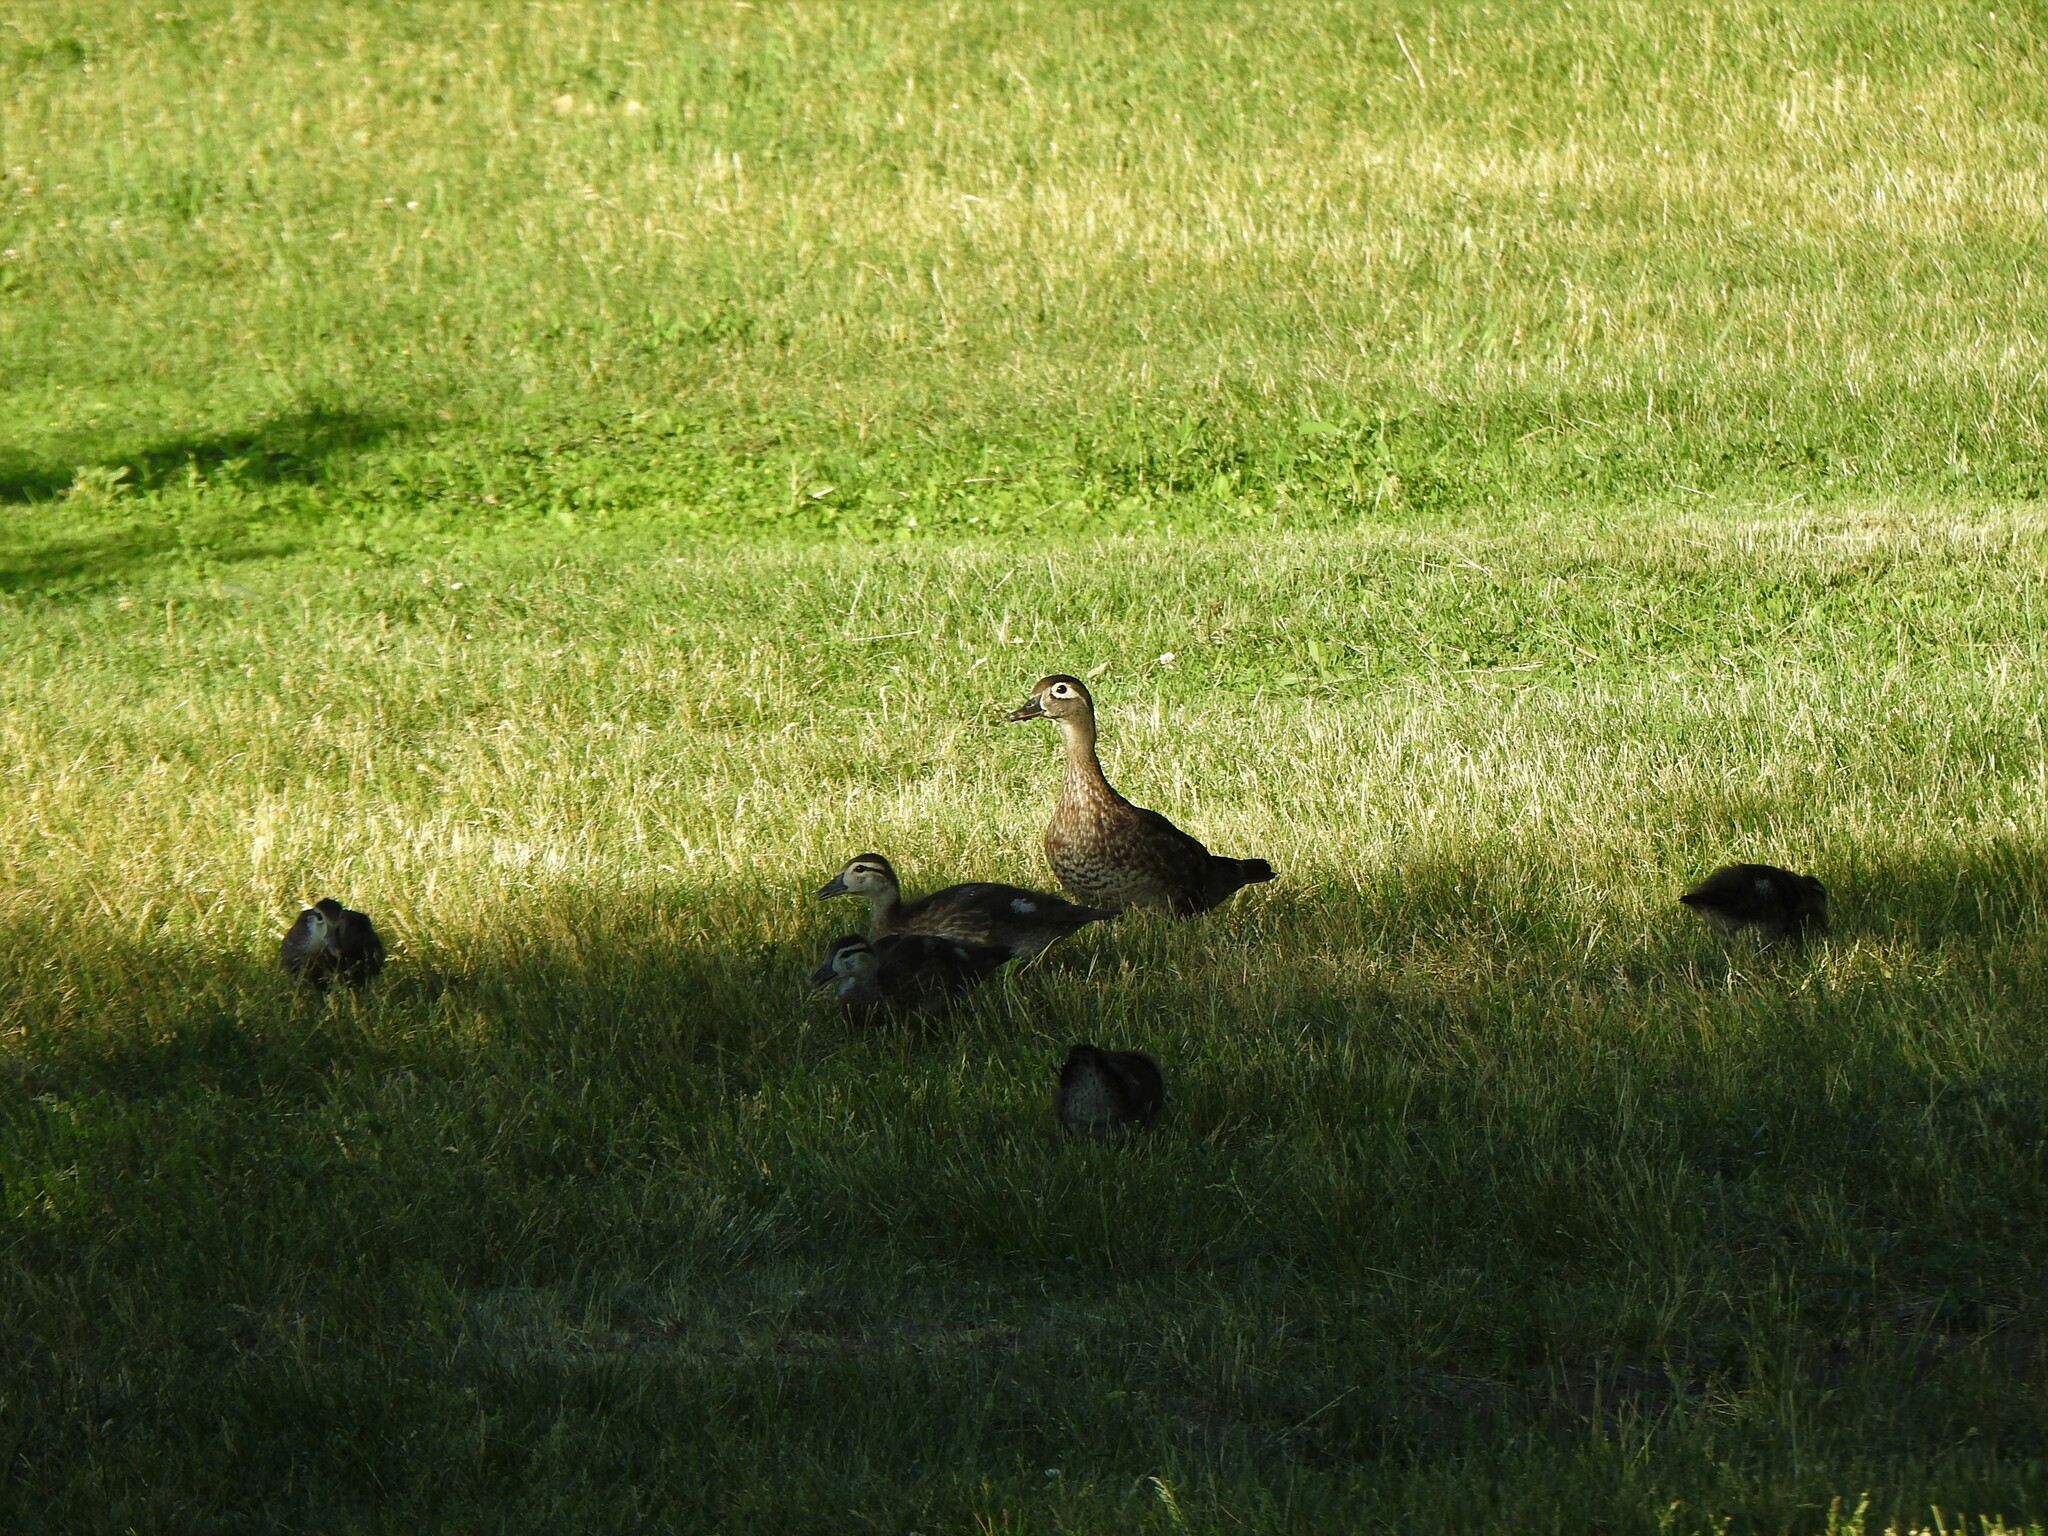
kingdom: Animalia
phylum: Chordata
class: Aves
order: Anseriformes
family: Anatidae
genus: Aix
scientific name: Aix sponsa
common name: Wood duck
